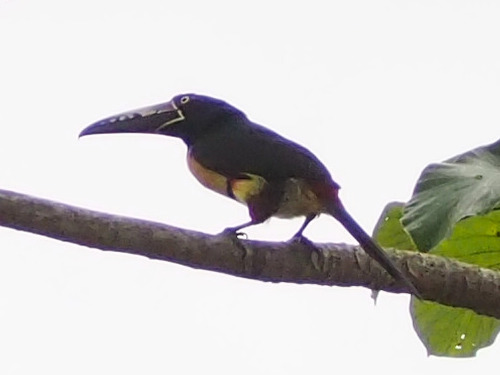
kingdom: Animalia
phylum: Chordata
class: Aves
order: Piciformes
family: Ramphastidae
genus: Pteroglossus
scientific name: Pteroglossus torquatus
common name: Collared aracari
